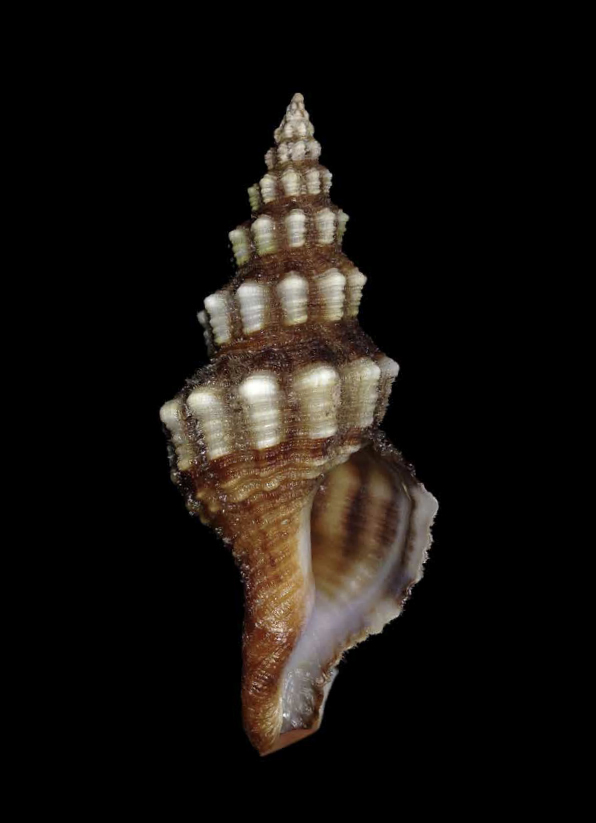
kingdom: Animalia
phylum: Mollusca
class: Gastropoda
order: Neogastropoda
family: Fasciolariidae
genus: Aptyxis
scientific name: Aptyxis syracusana
